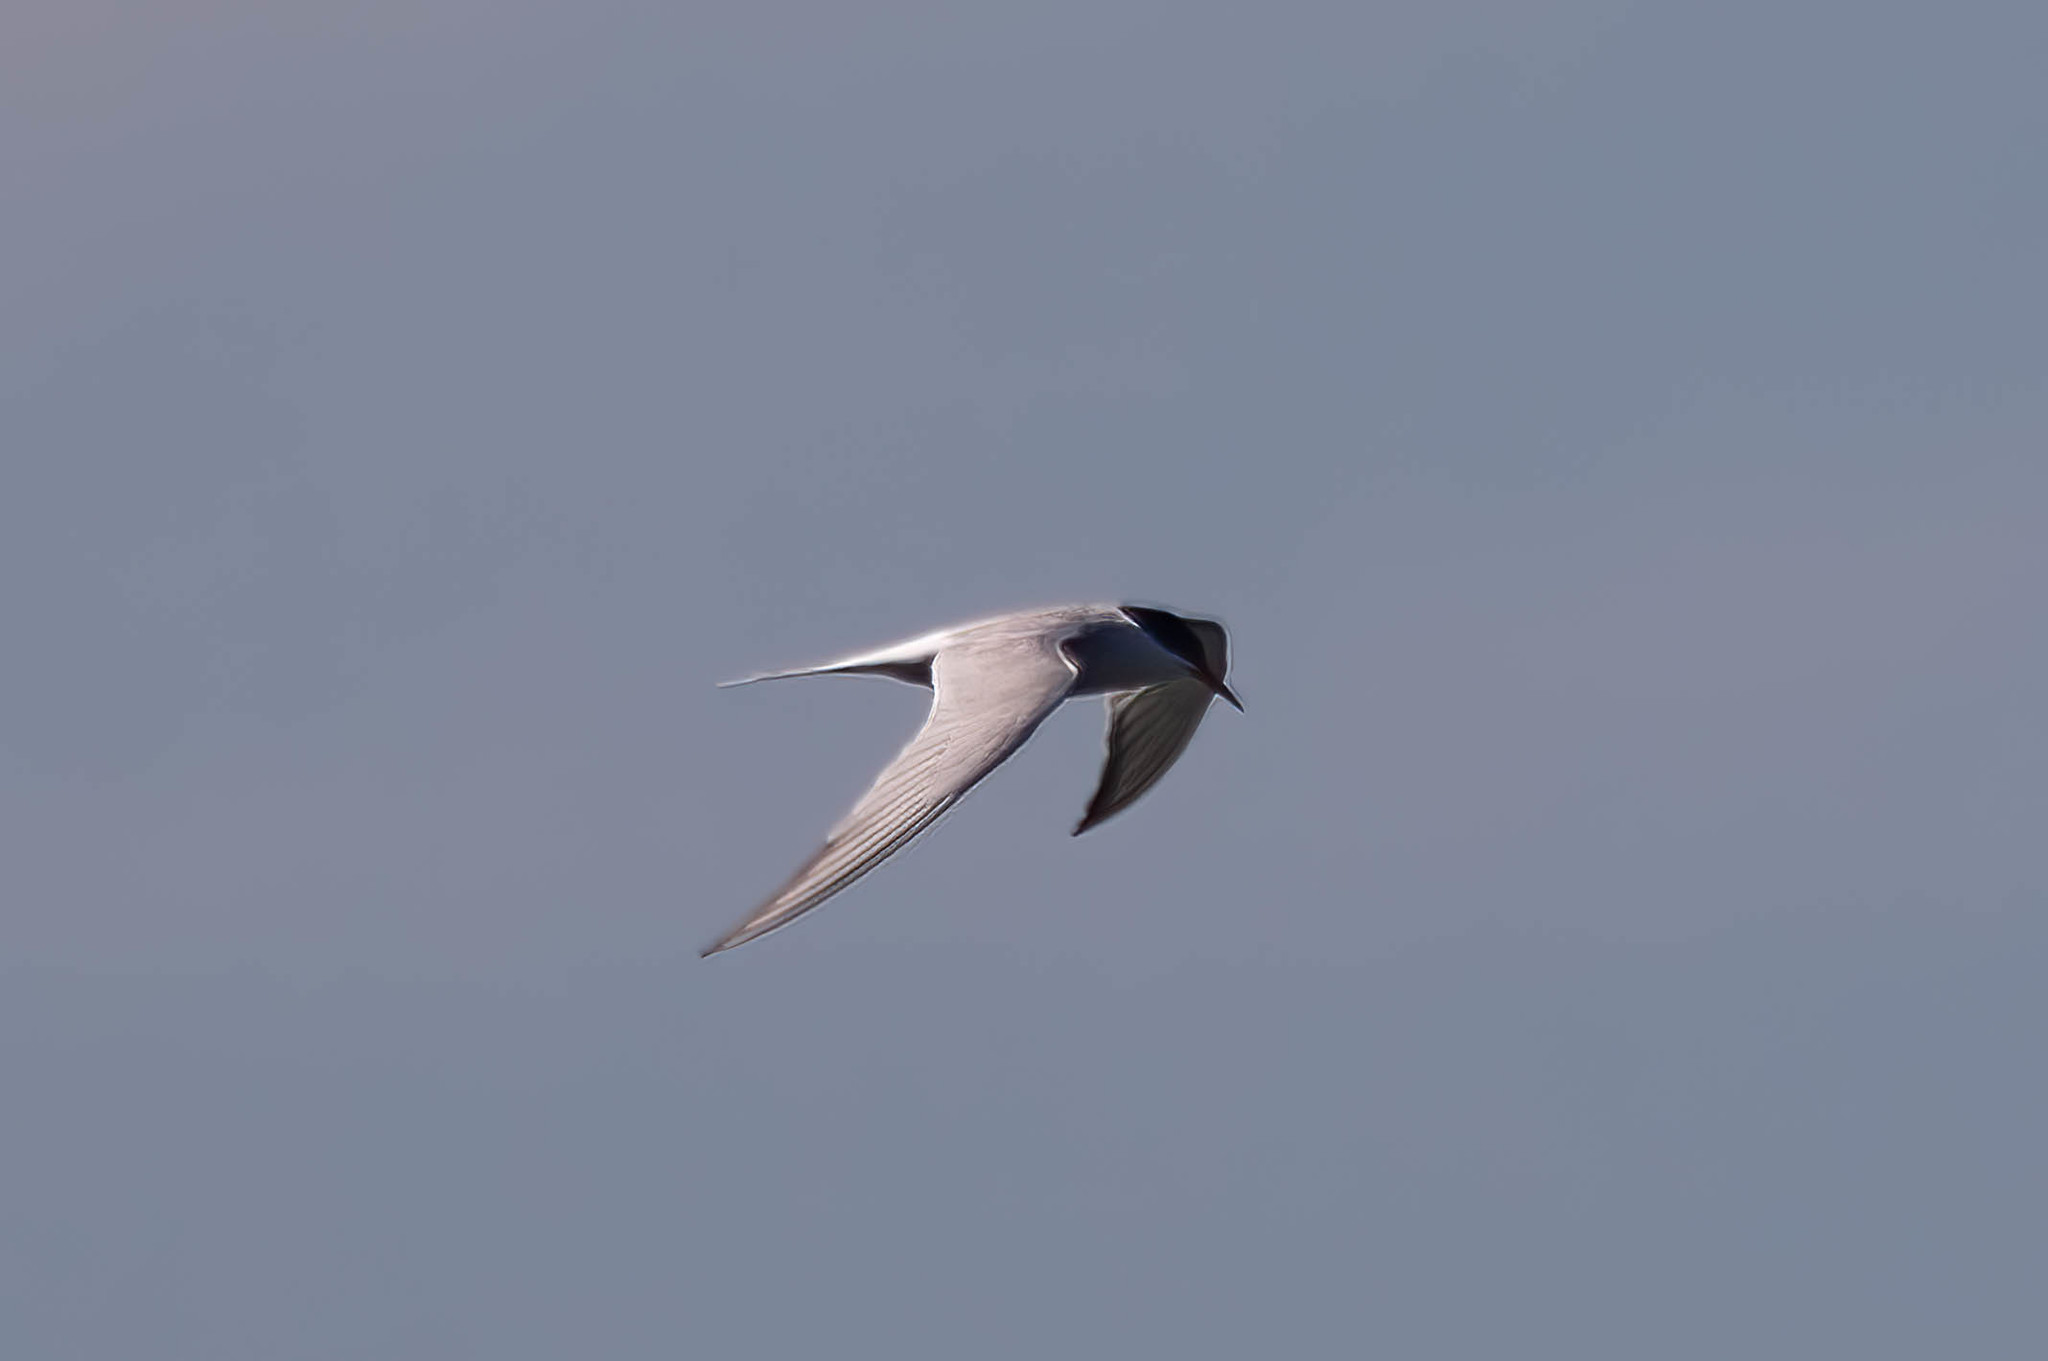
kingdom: Animalia
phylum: Chordata
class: Aves
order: Charadriiformes
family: Laridae
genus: Sterna
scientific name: Sterna hirundo
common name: Common tern
